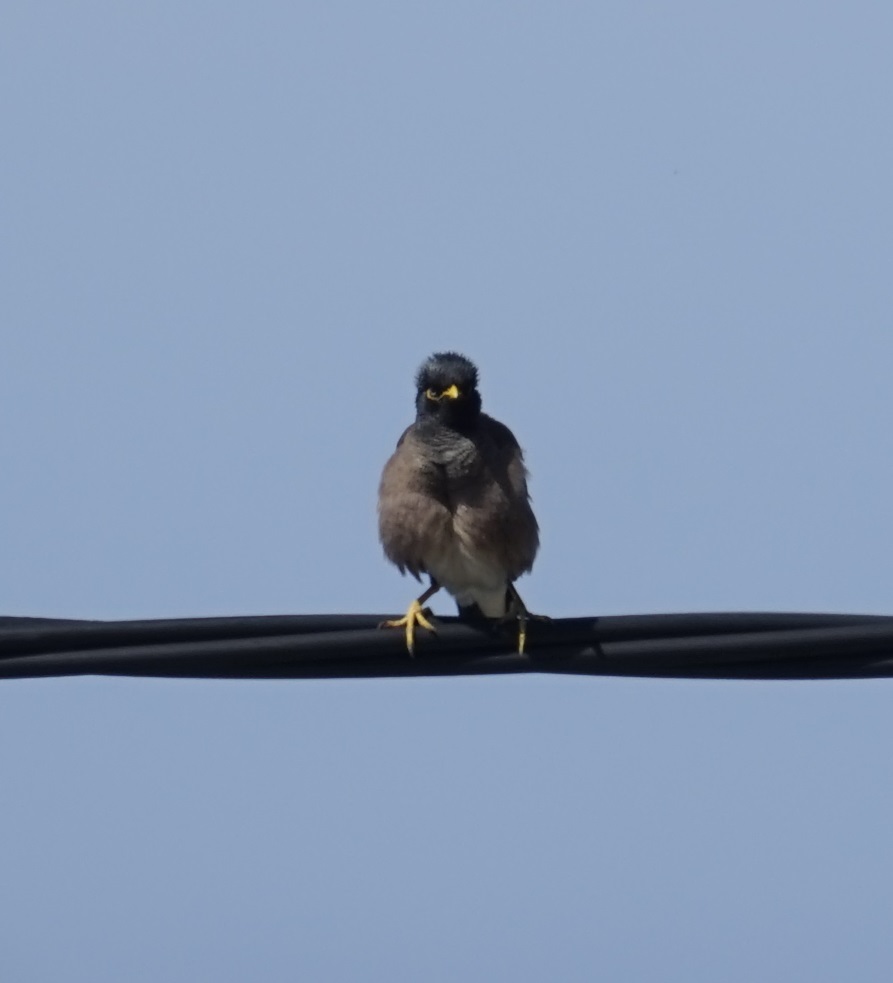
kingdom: Animalia
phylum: Chordata
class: Aves
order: Passeriformes
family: Sturnidae
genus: Acridotheres
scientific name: Acridotheres tristis
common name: Common myna
